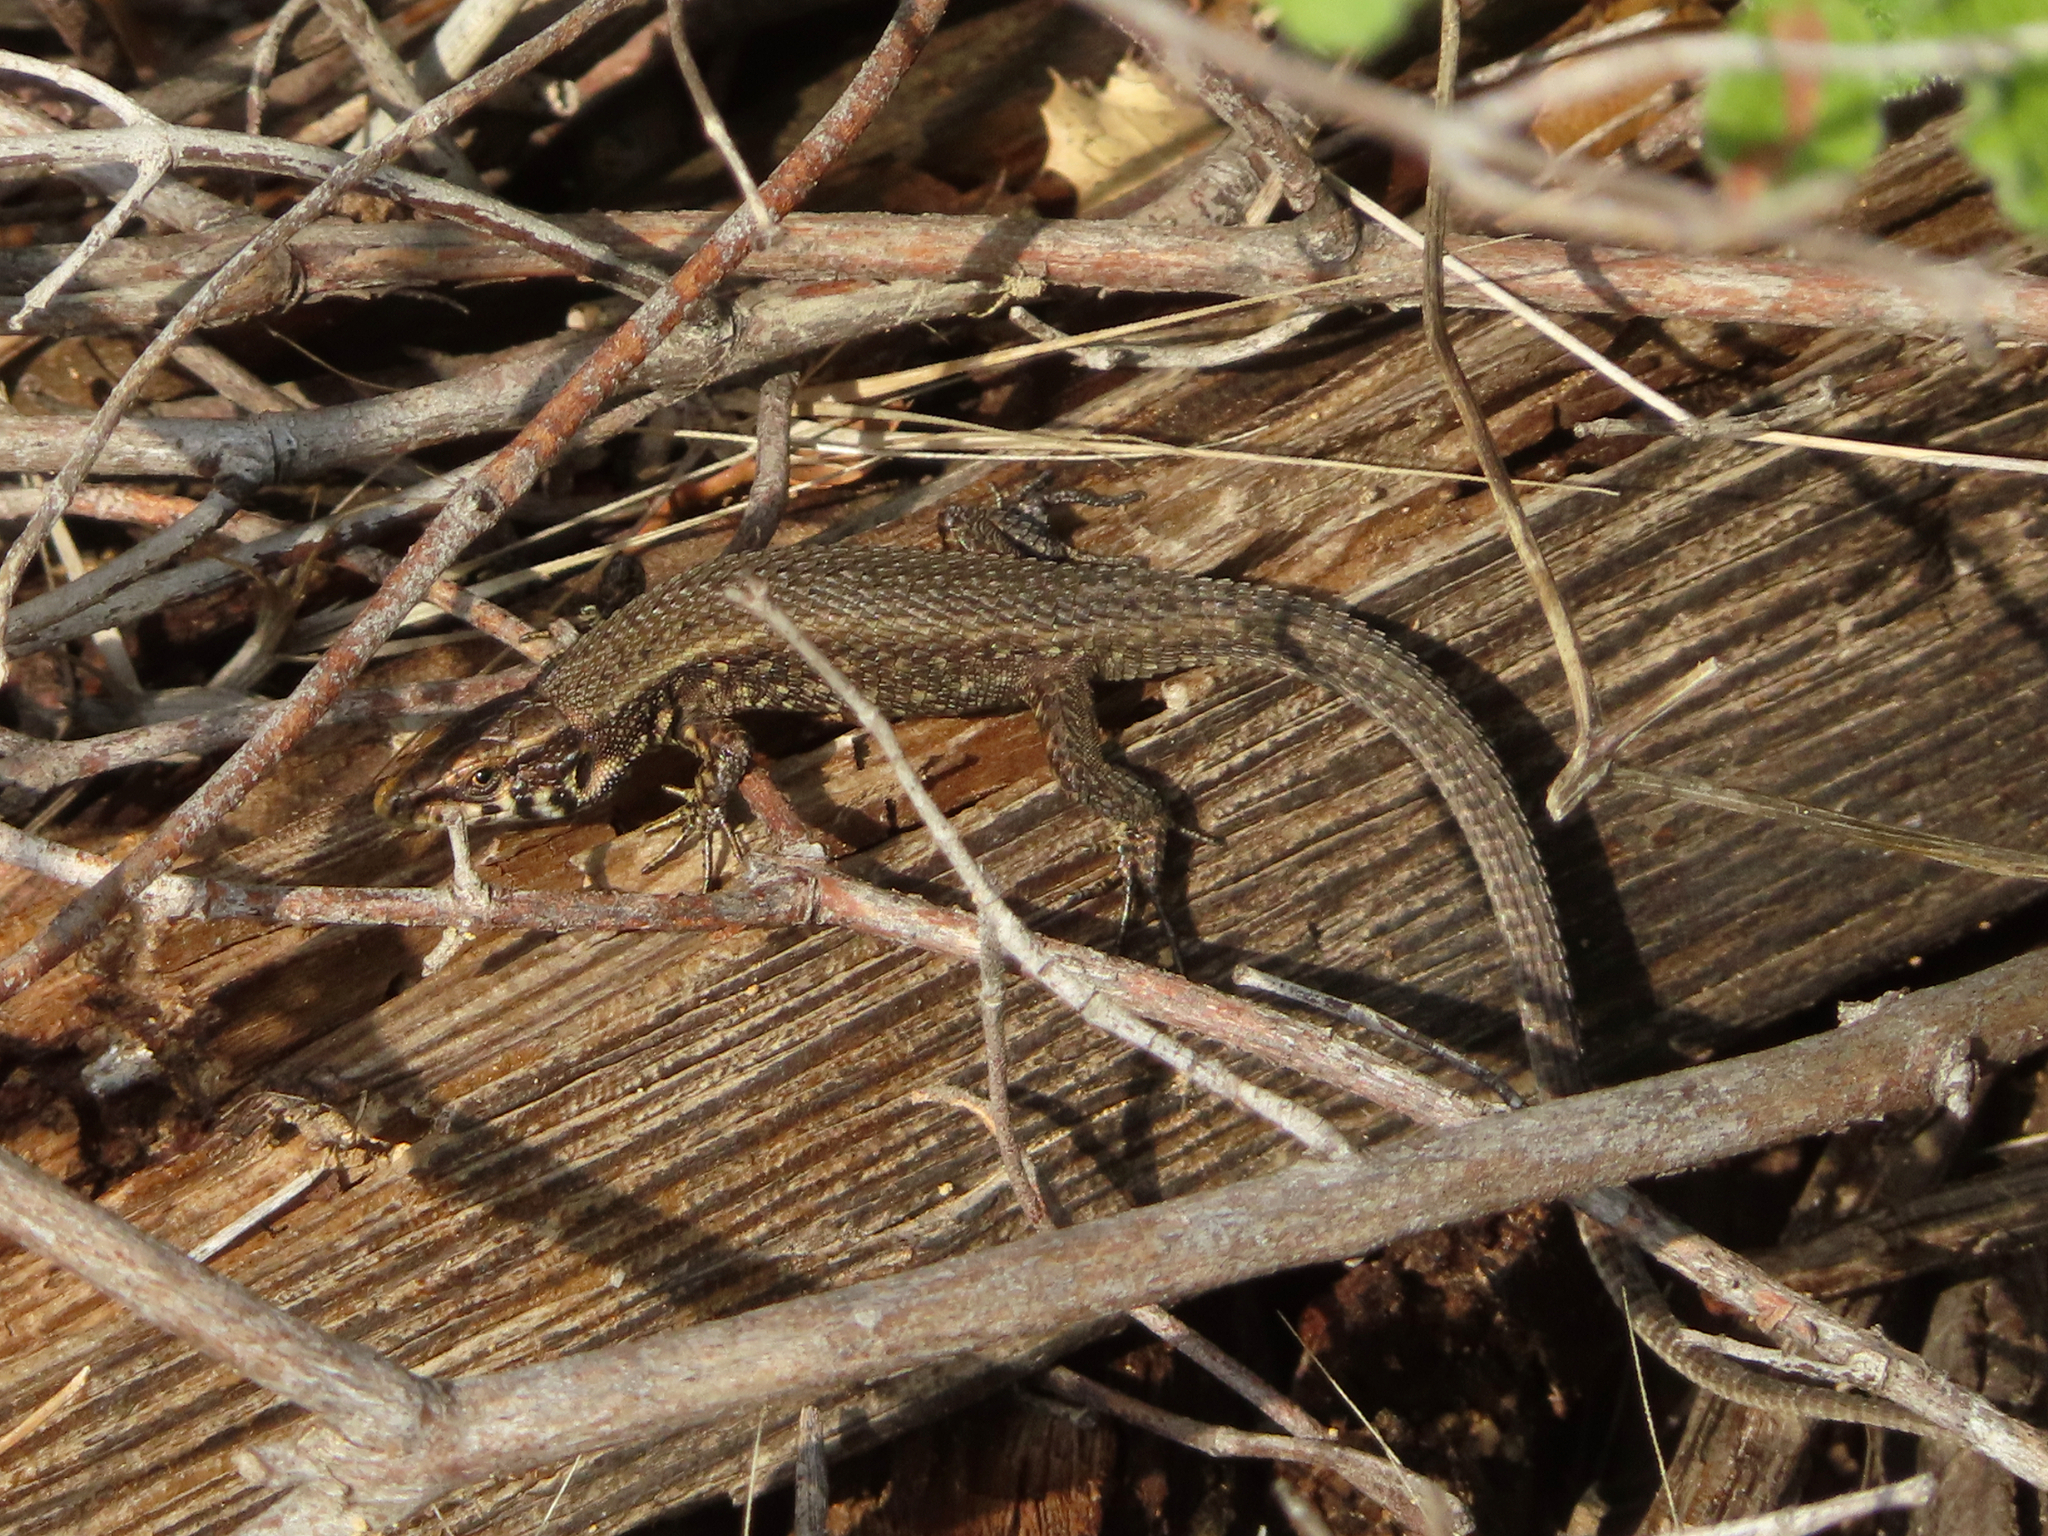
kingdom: Animalia
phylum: Chordata
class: Squamata
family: Lacertidae
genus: Algyroides
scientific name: Algyroides moreoticus
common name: Greek algyroides
